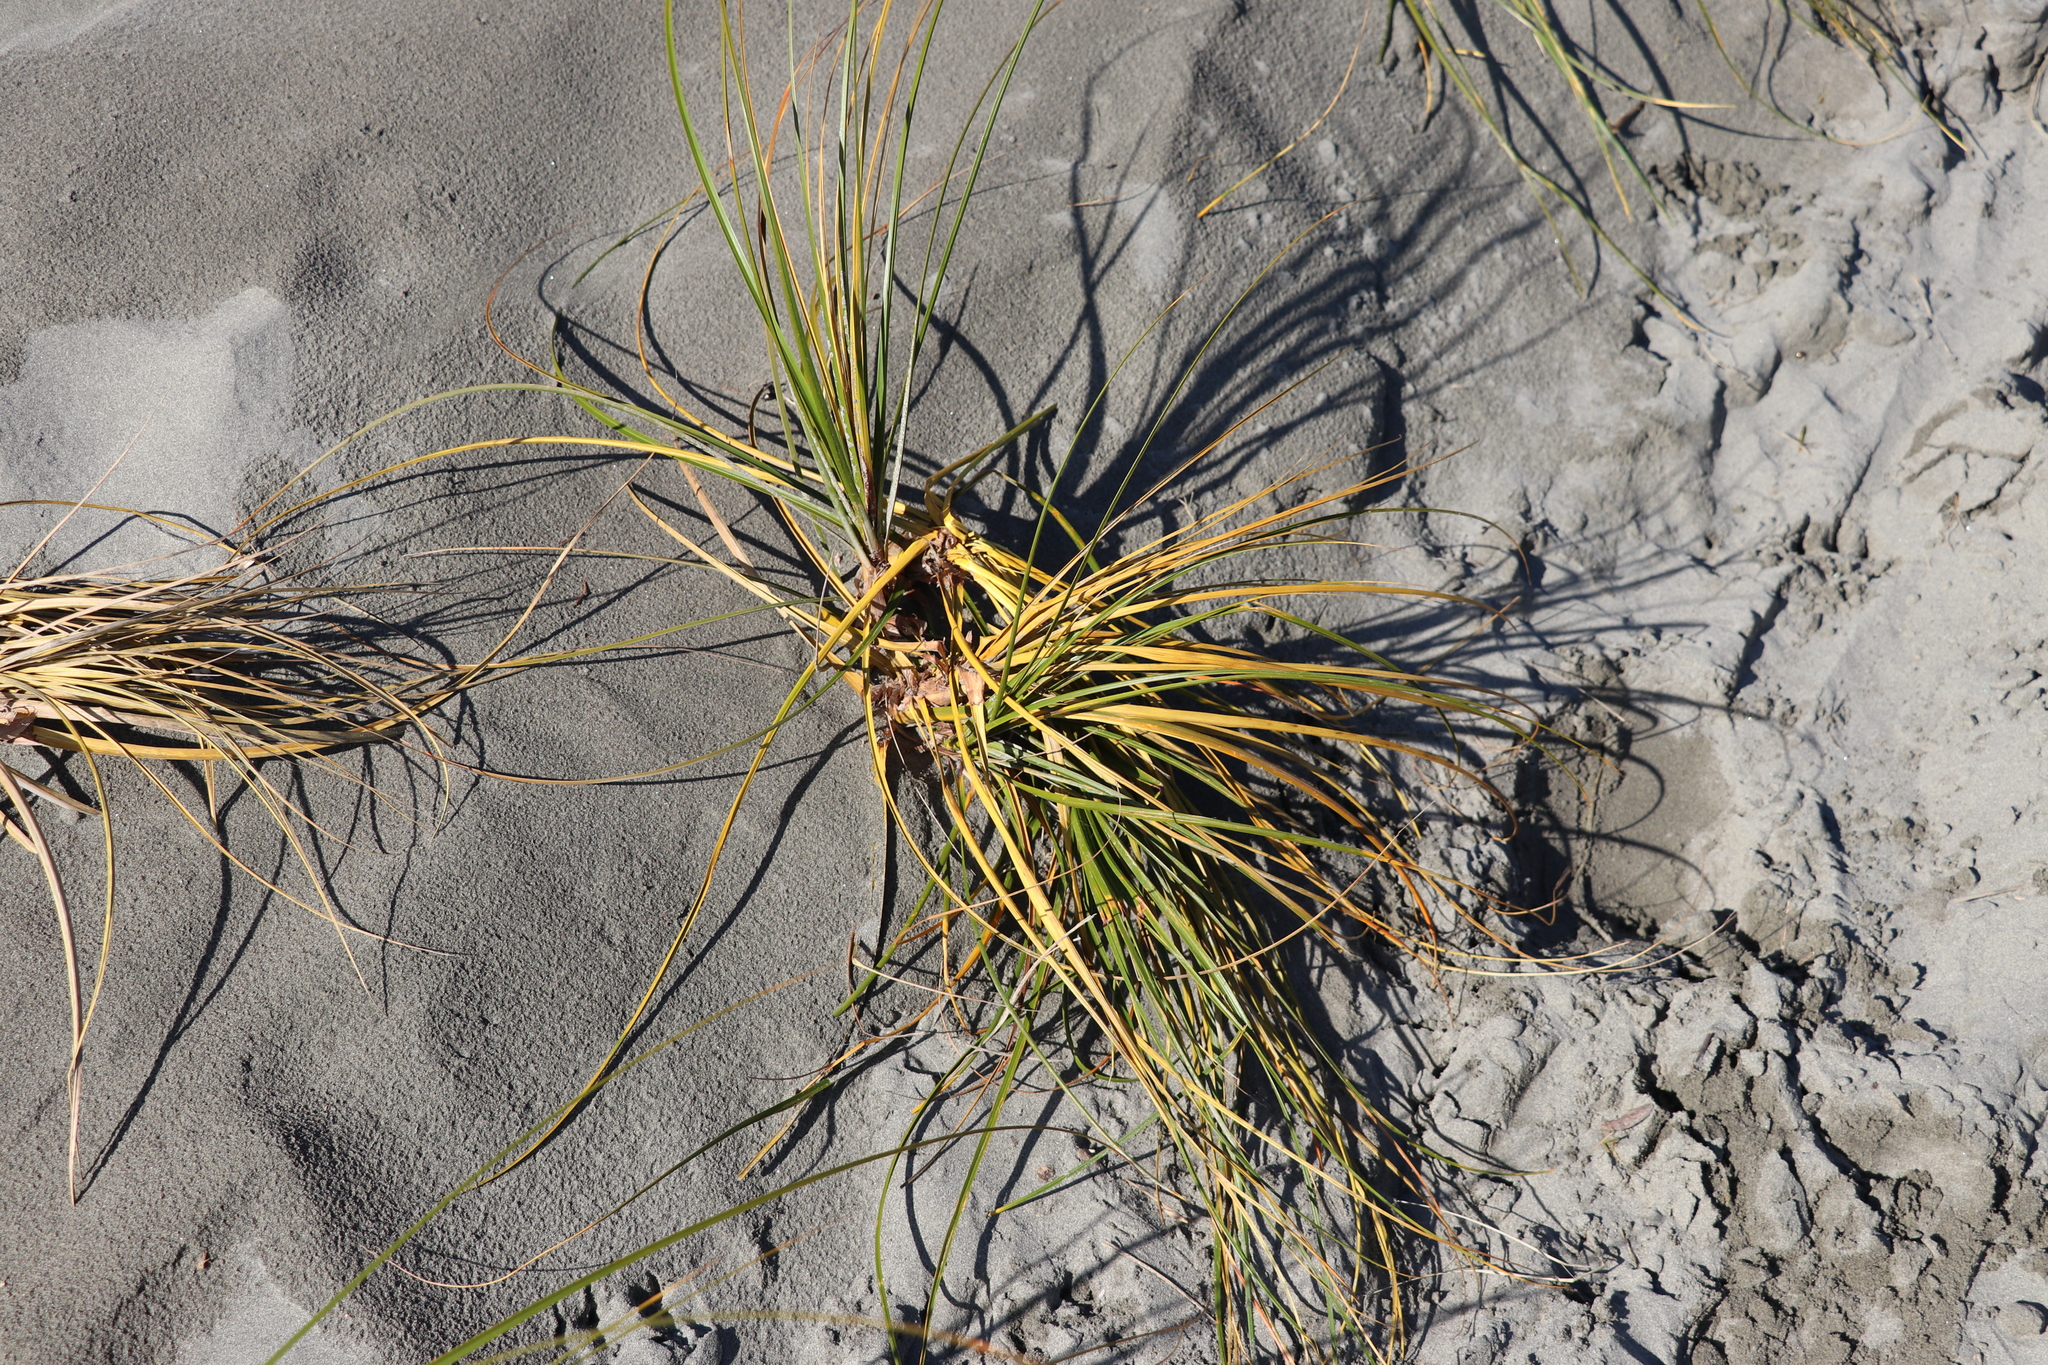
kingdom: Plantae
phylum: Tracheophyta
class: Liliopsida
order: Poales
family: Cyperaceae
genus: Ficinia
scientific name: Ficinia spiralis
